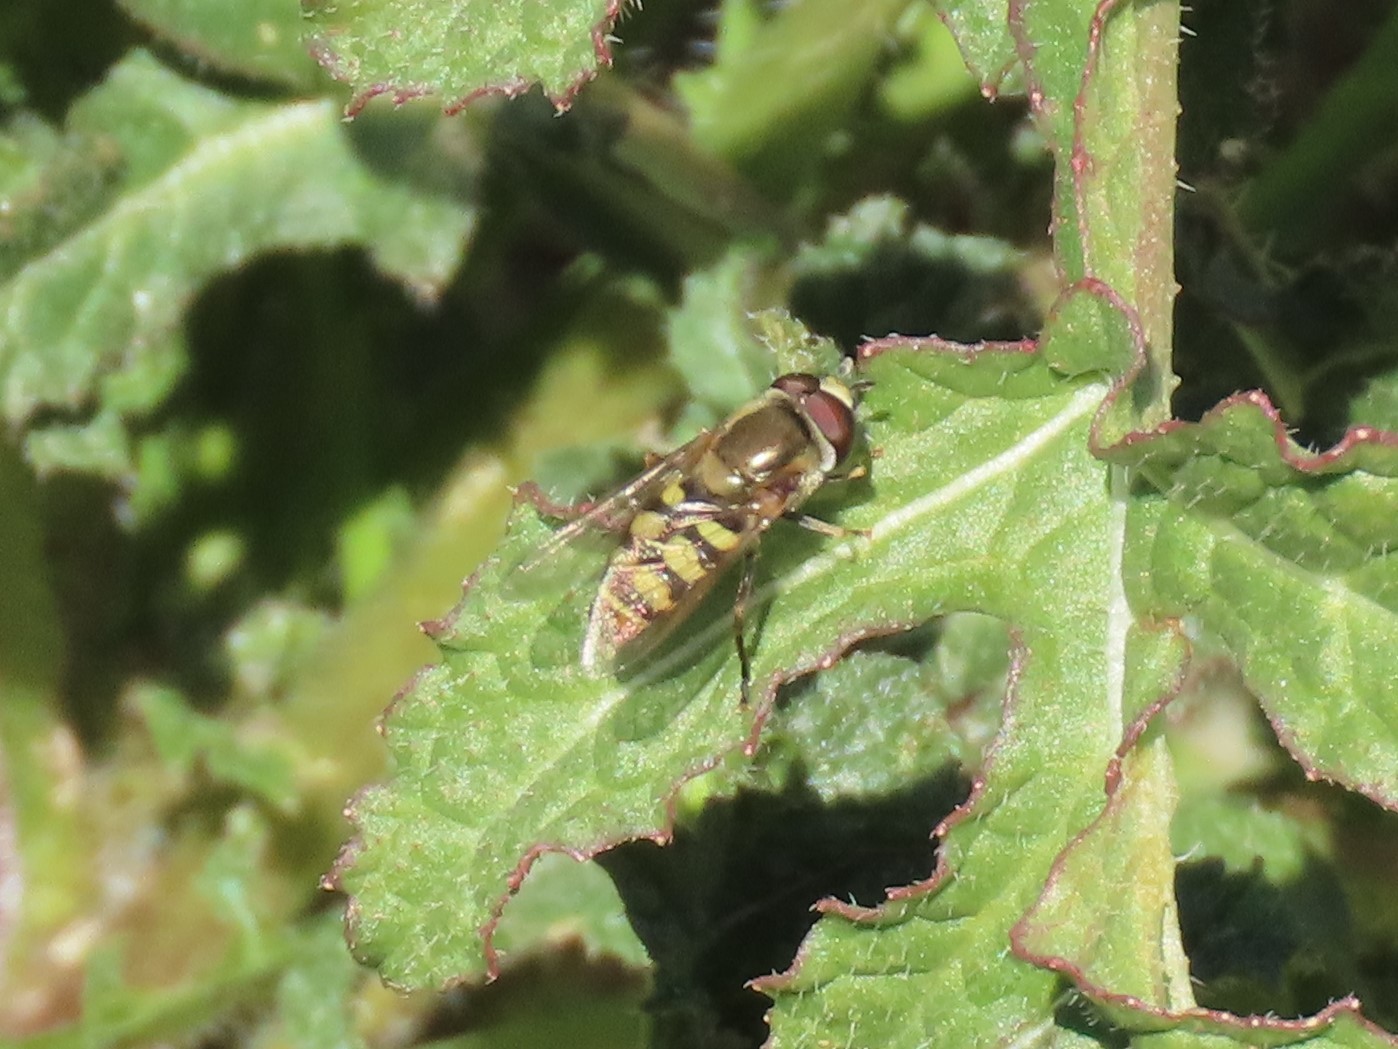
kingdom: Animalia
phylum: Arthropoda
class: Insecta
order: Diptera
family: Syrphidae
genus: Eupeodes
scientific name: Eupeodes corollae
